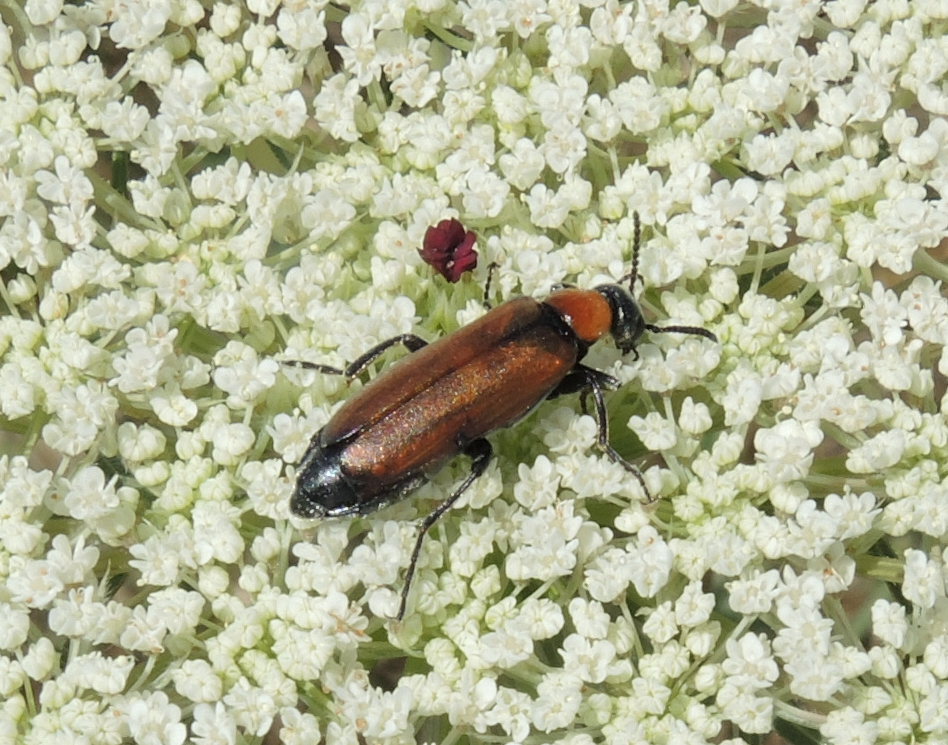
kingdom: Animalia
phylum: Arthropoda
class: Insecta
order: Coleoptera
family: Meloidae
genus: Oenas
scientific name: Oenas crassicornis
